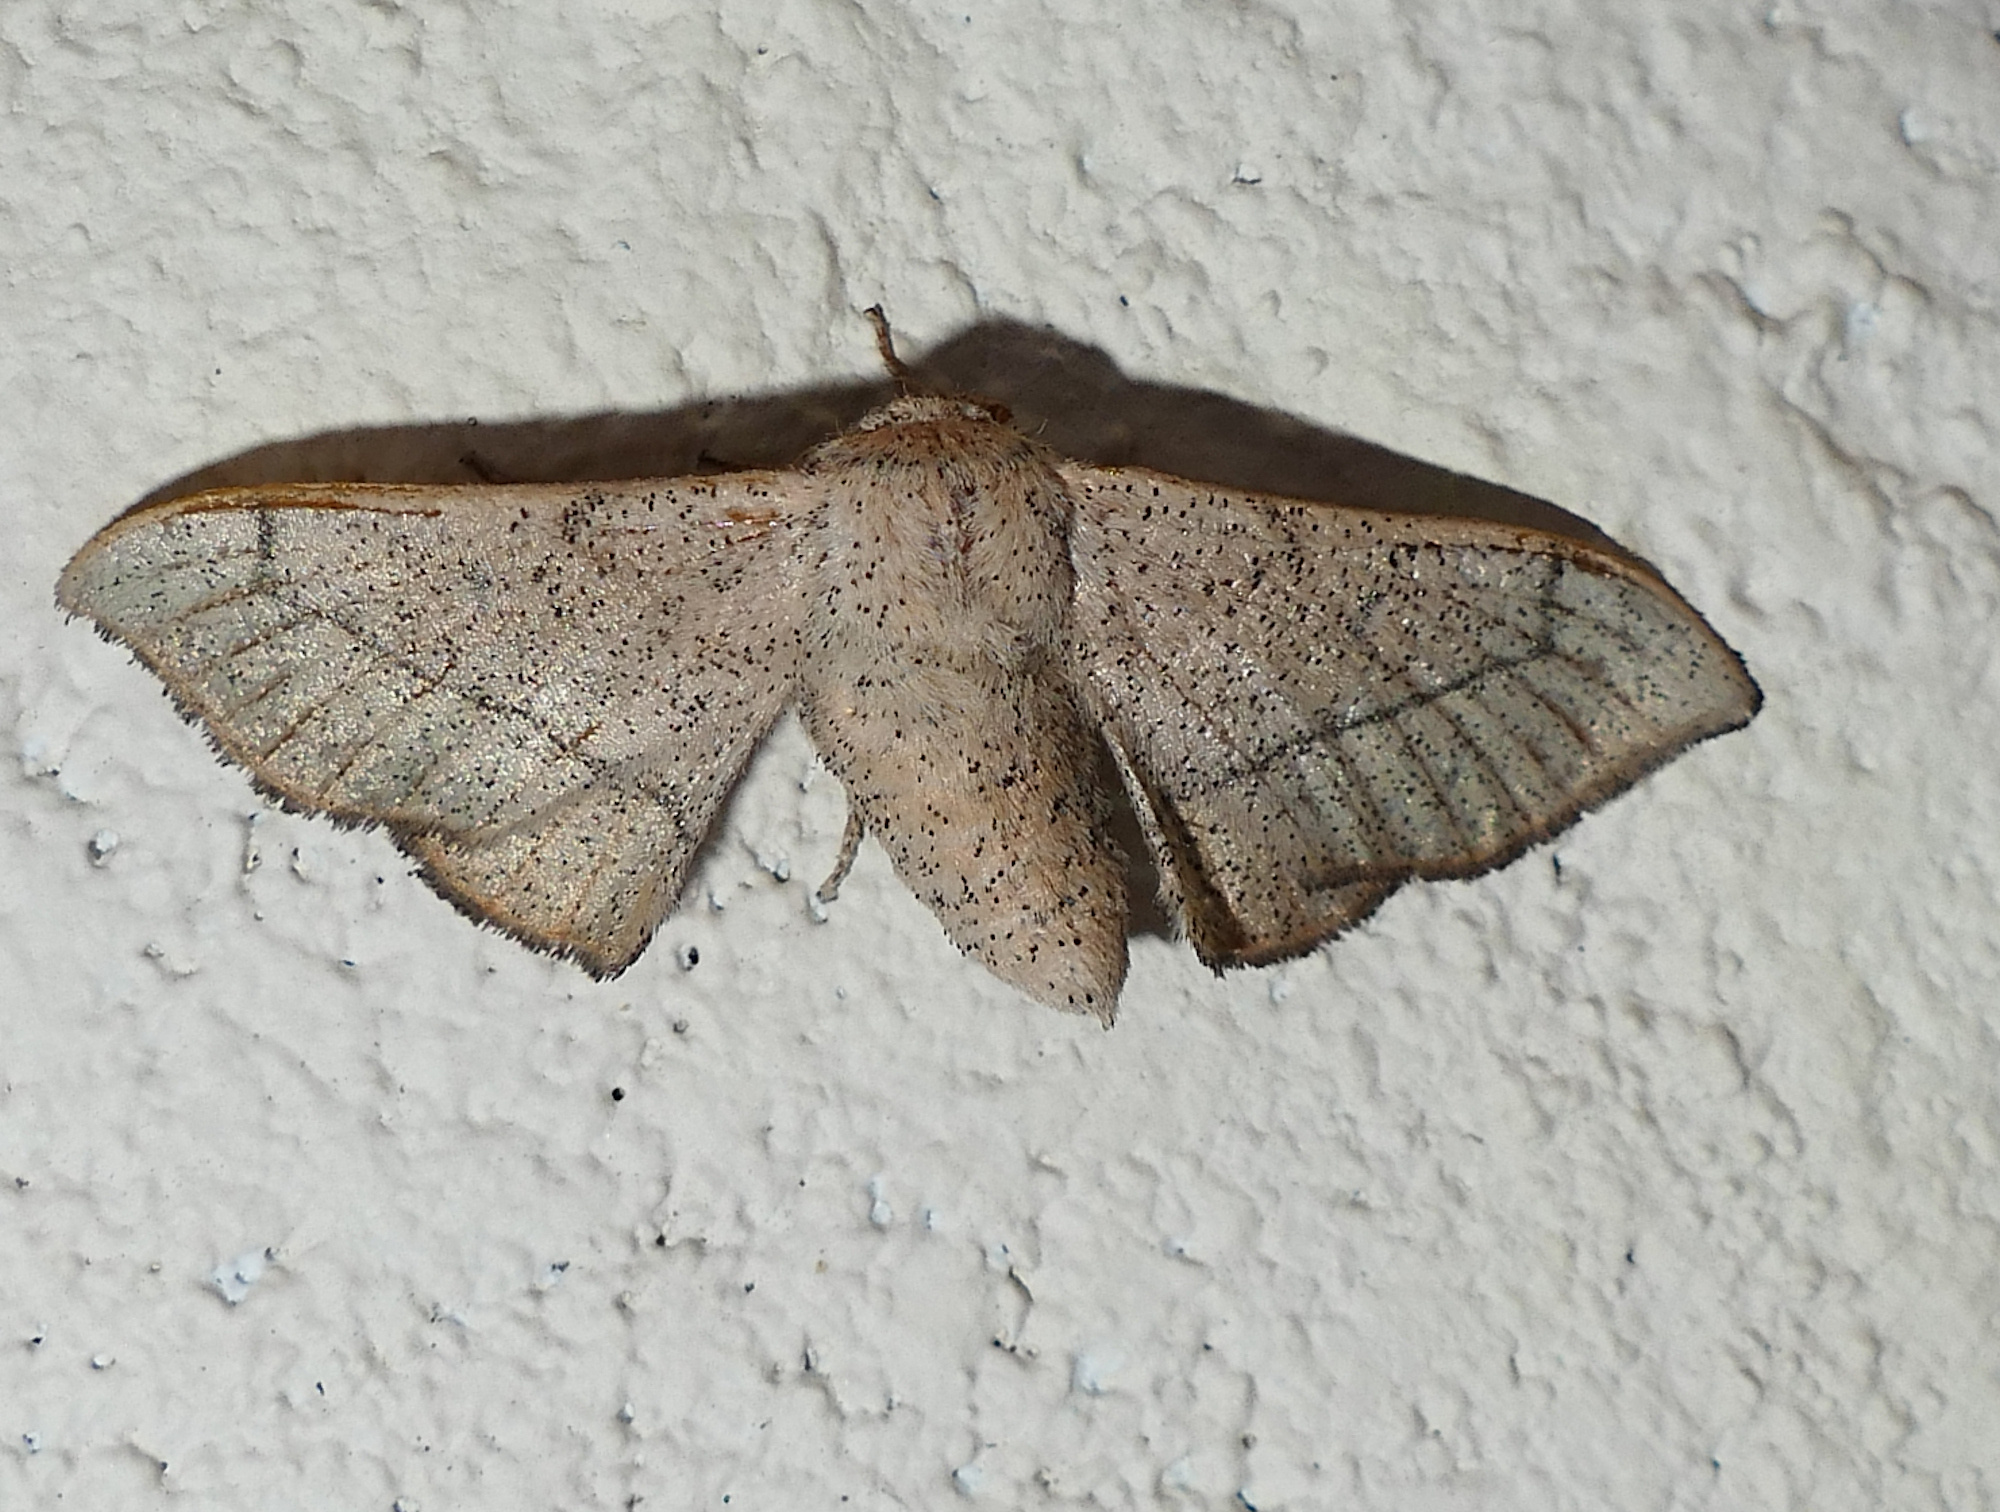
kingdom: Animalia
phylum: Arthropoda
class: Insecta
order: Lepidoptera
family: Mimallonidae
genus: Cicinnus
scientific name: Cicinnus melsheimeri
